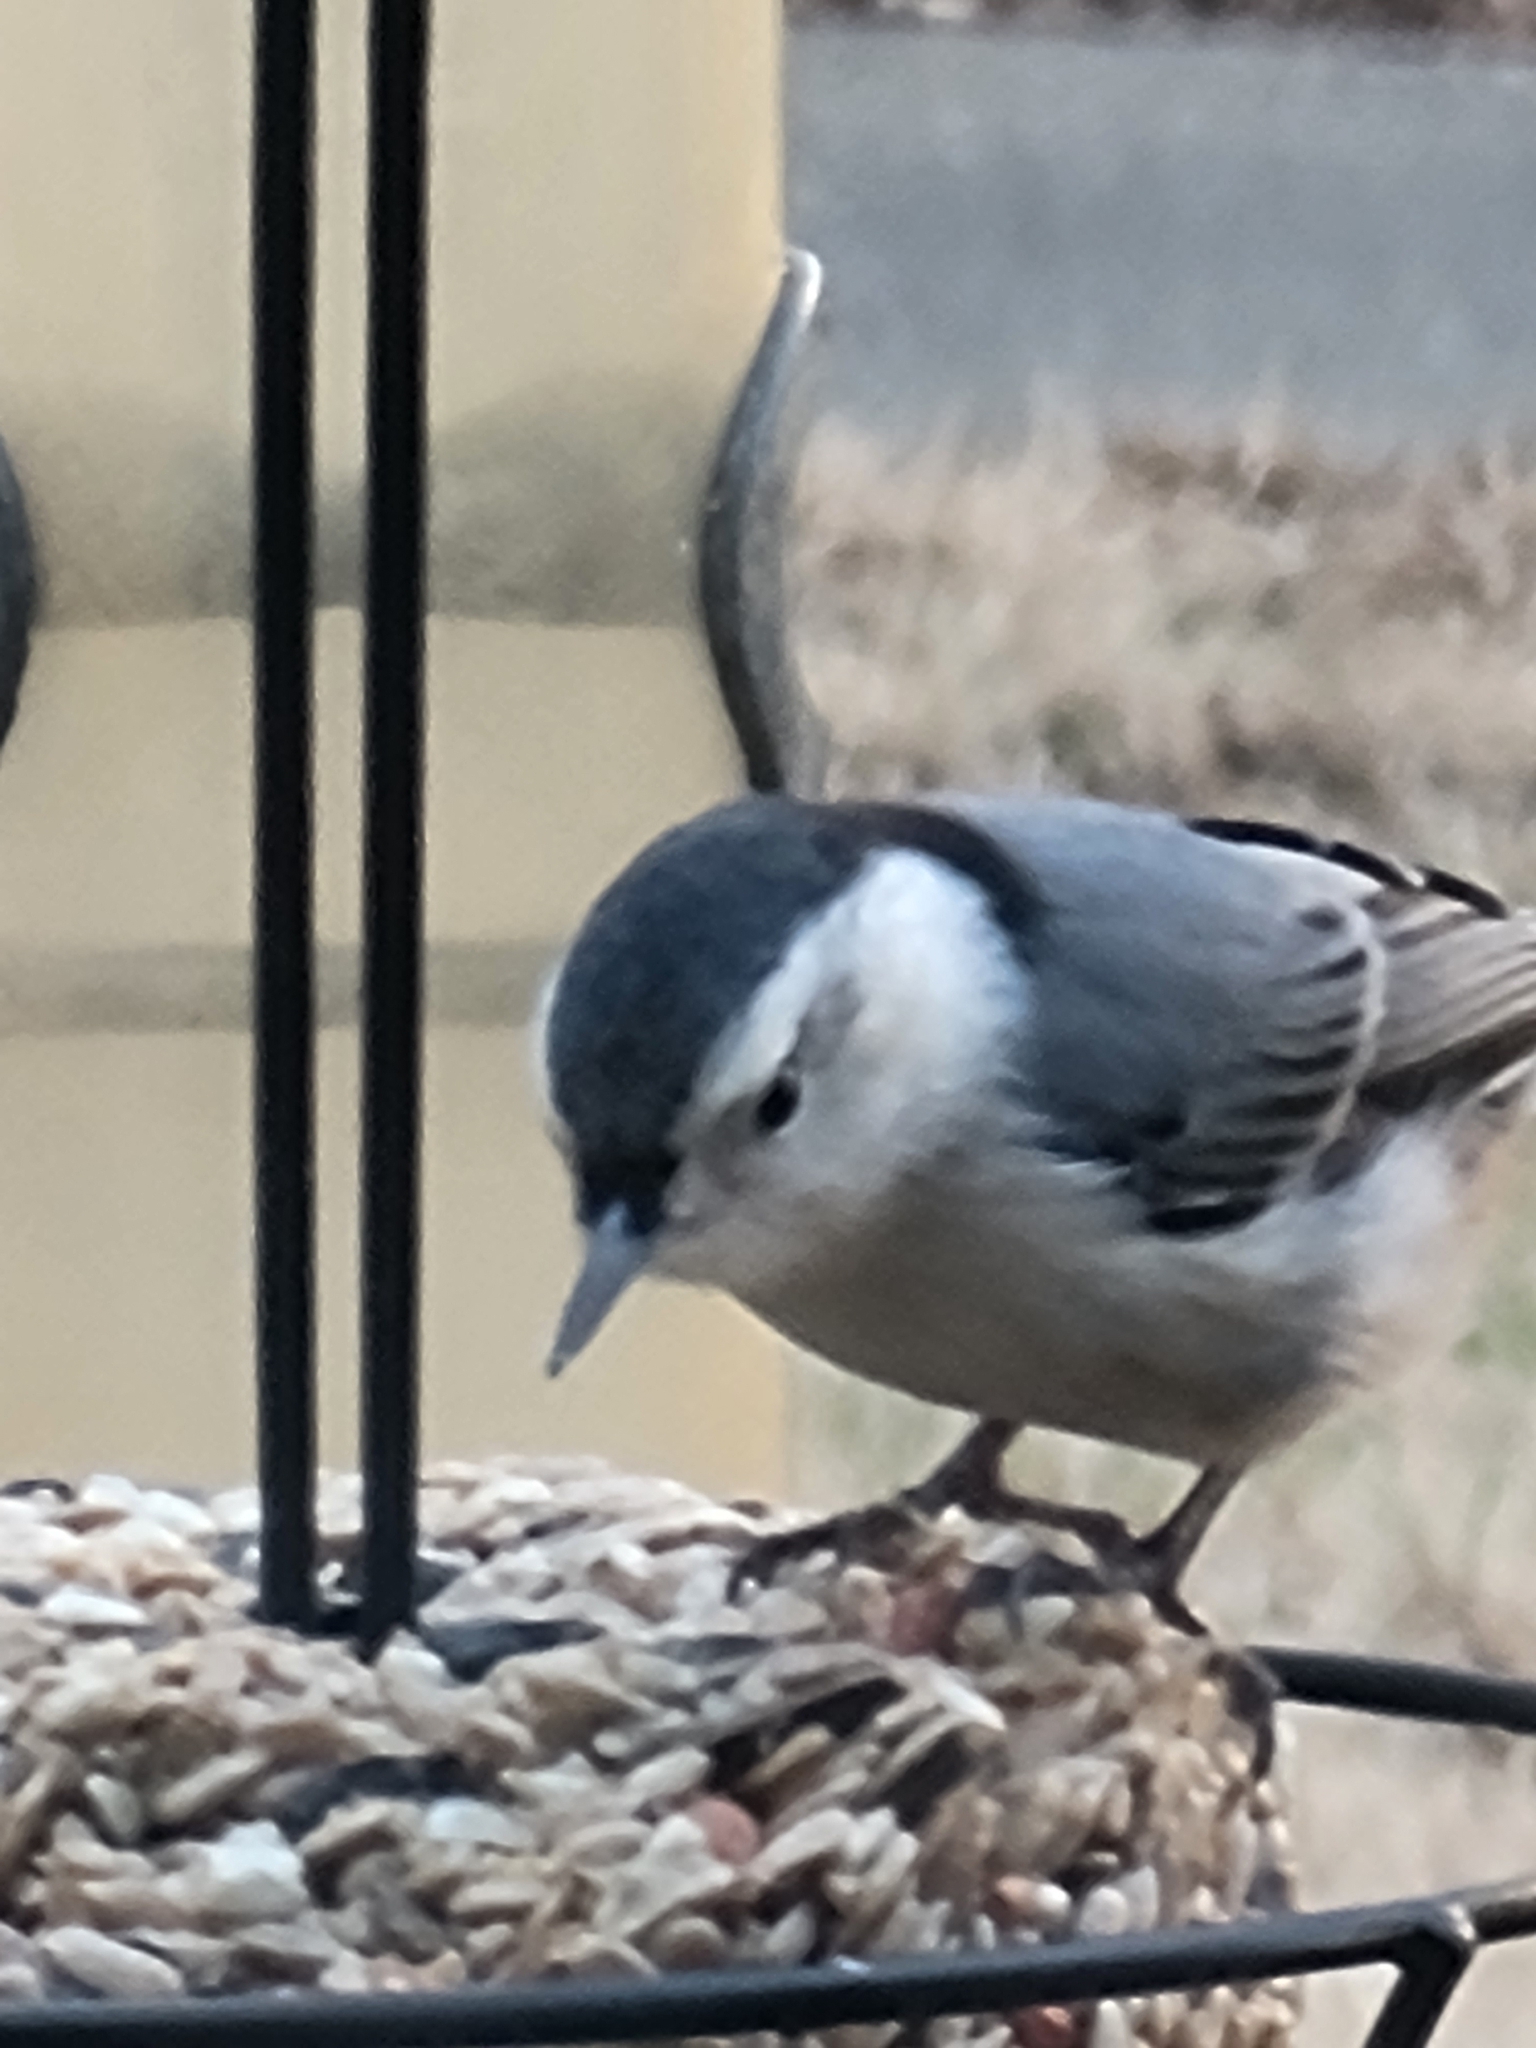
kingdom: Animalia
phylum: Chordata
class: Aves
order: Passeriformes
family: Sittidae
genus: Sitta
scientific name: Sitta carolinensis
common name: White-breasted nuthatch
